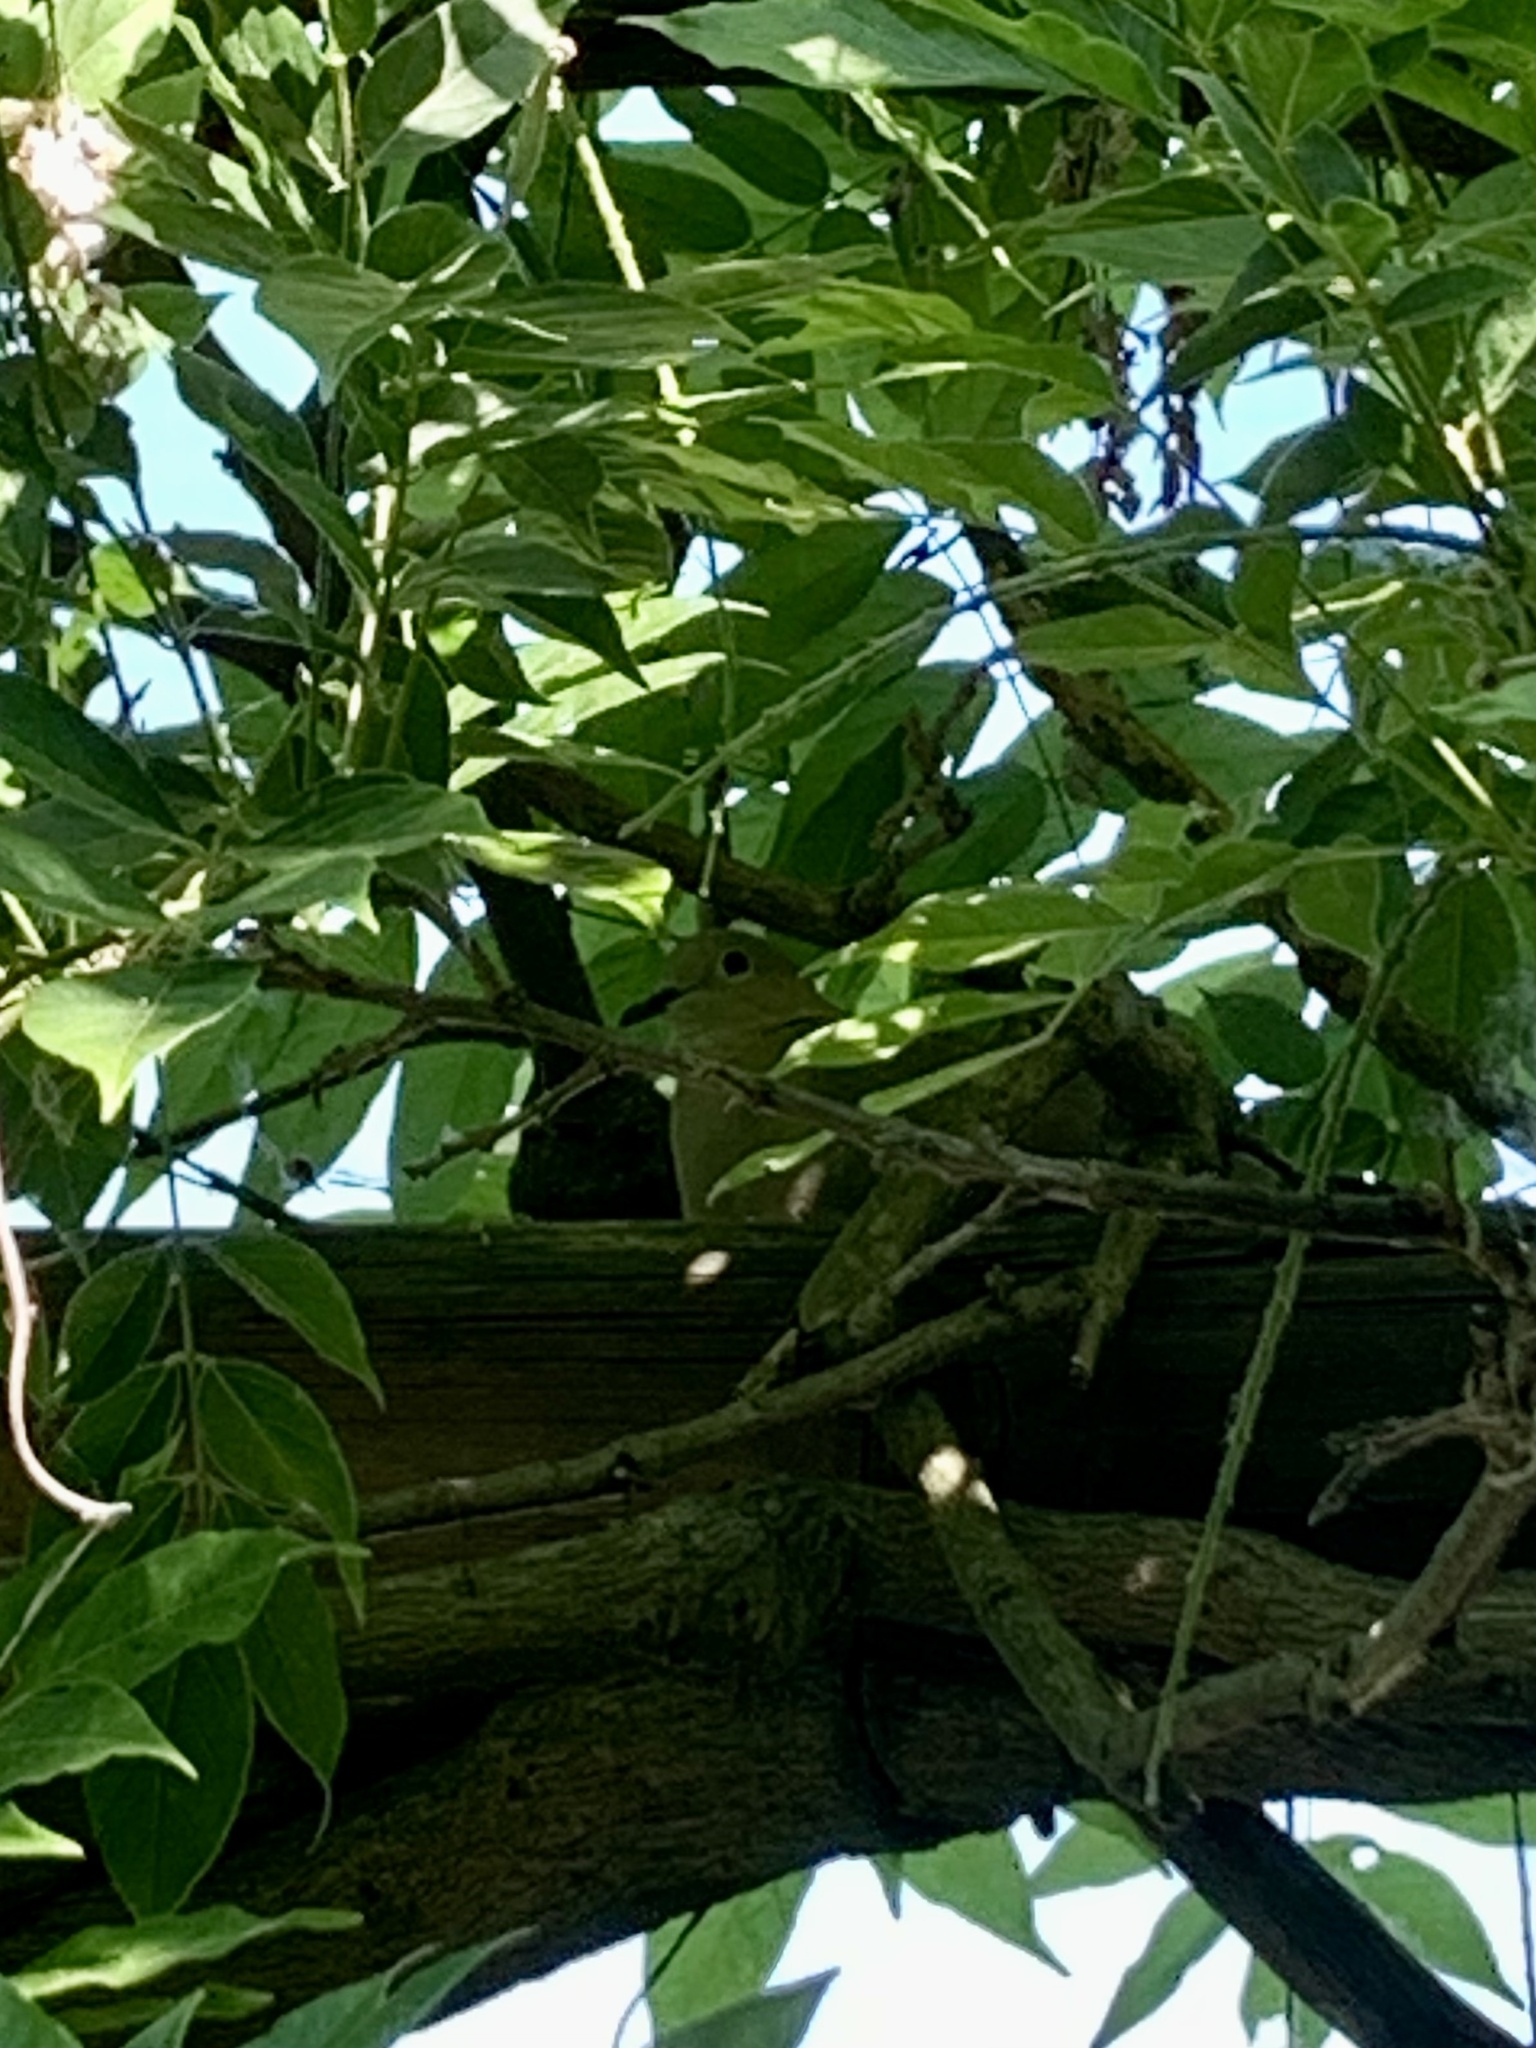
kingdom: Animalia
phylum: Chordata
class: Aves
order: Columbiformes
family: Columbidae
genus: Streptopelia
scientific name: Streptopelia decaocto
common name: Eurasian collared dove
